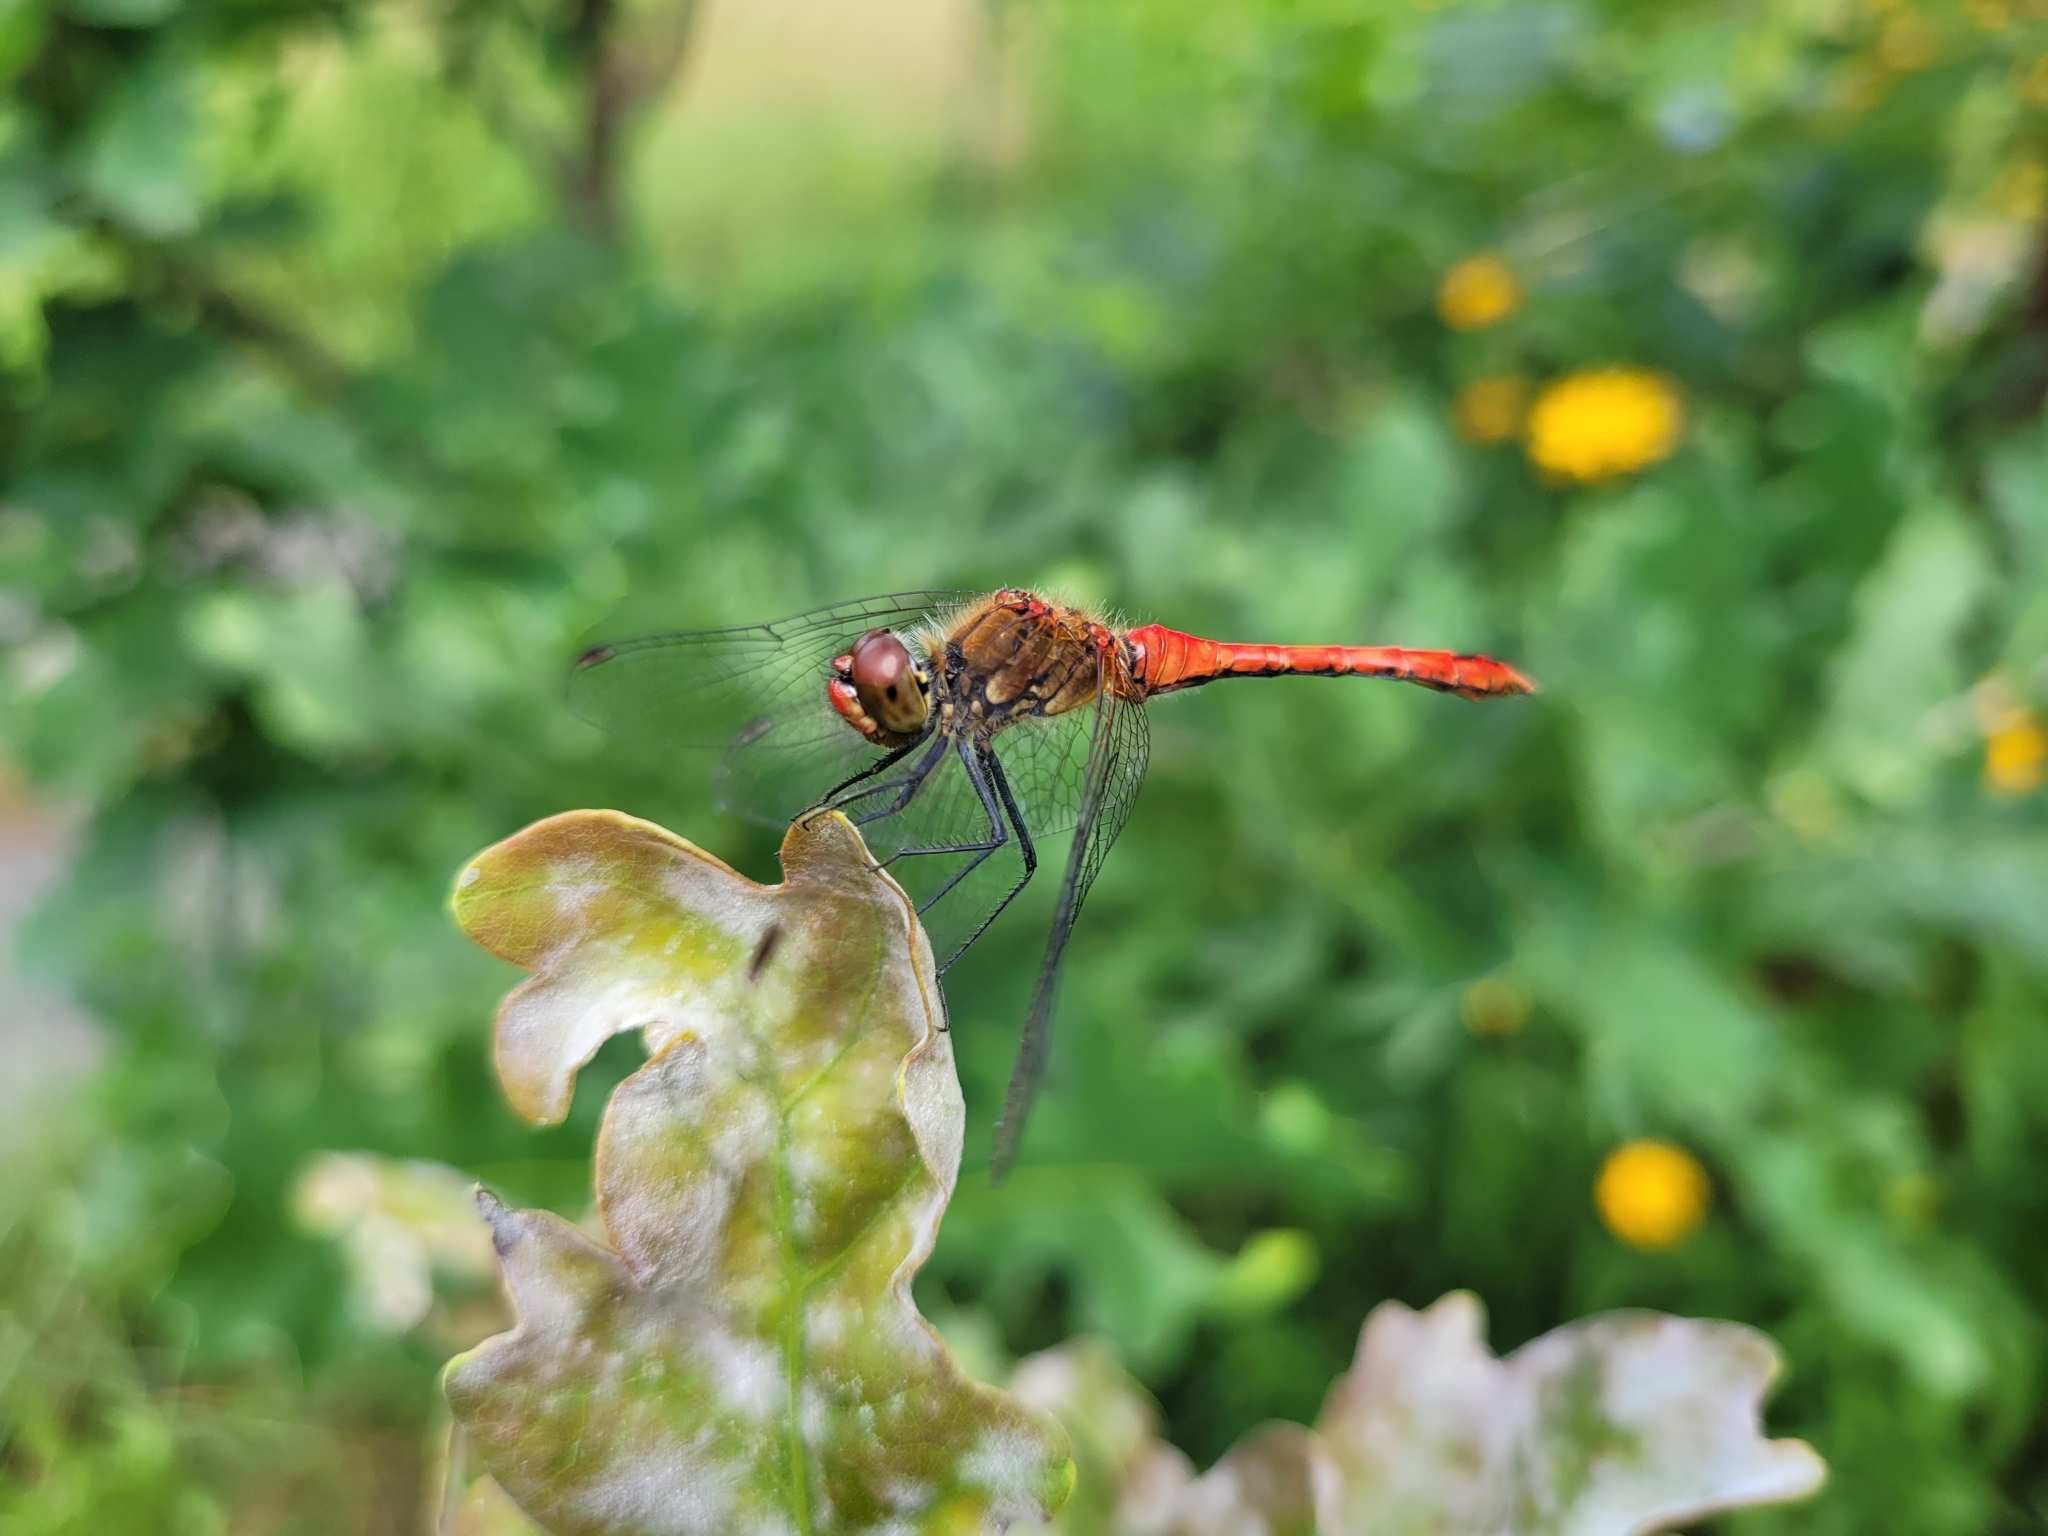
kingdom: Animalia
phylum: Arthropoda
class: Insecta
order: Odonata
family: Libellulidae
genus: Sympetrum
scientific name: Sympetrum sanguineum
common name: Ruddy darter
